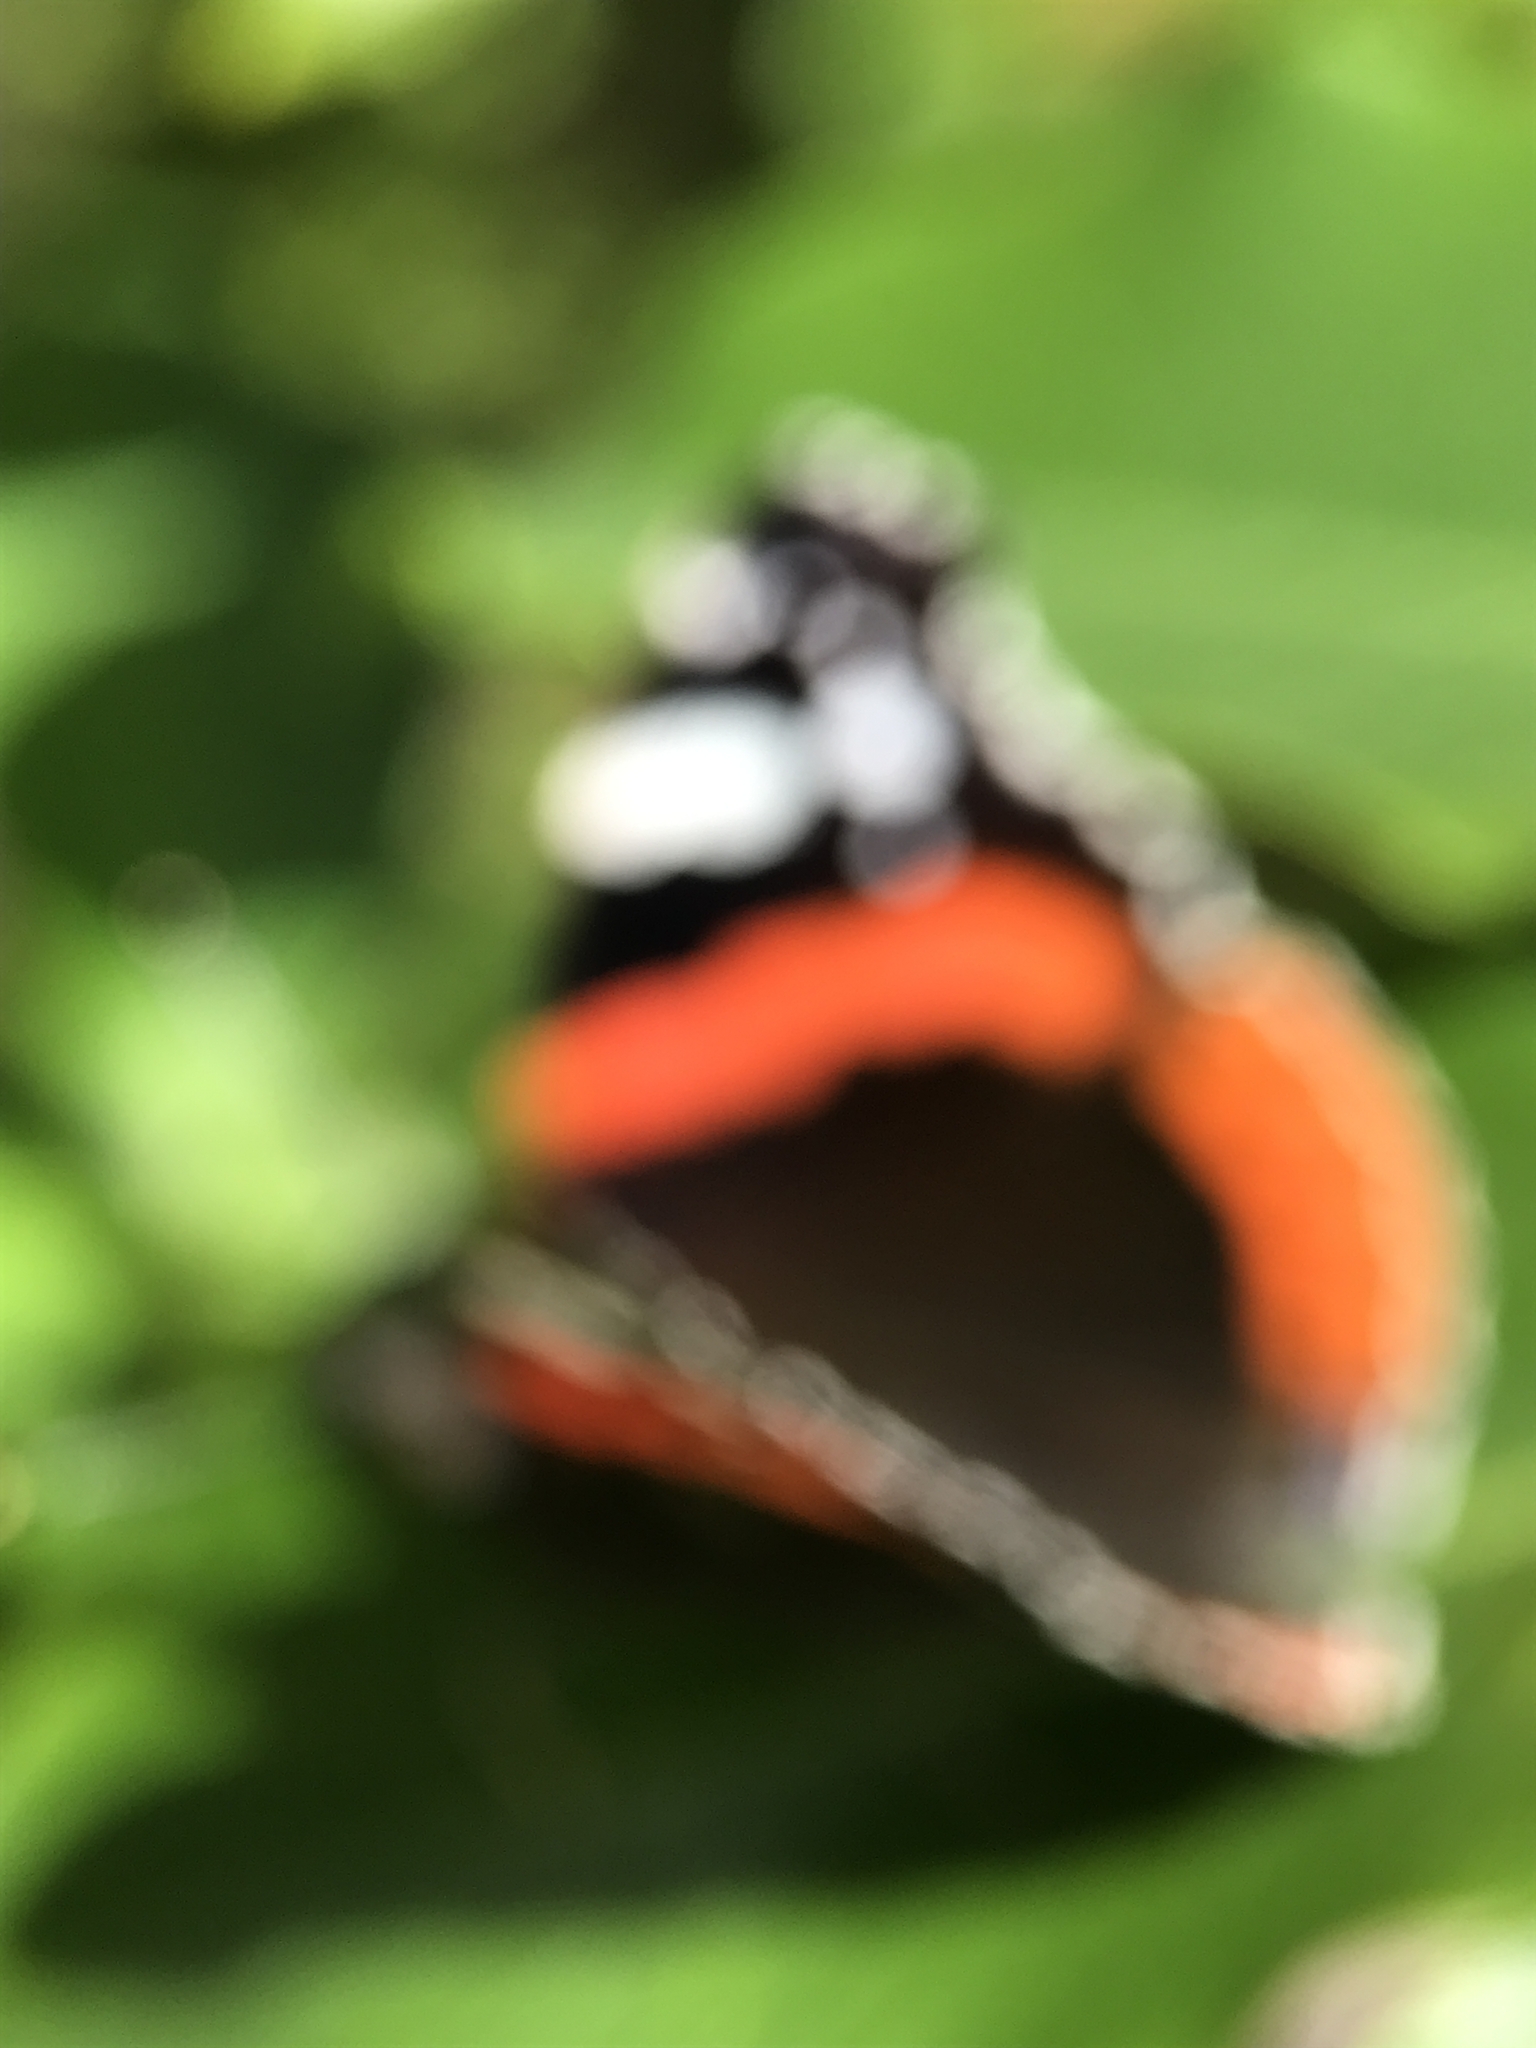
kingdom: Animalia
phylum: Arthropoda
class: Insecta
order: Lepidoptera
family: Nymphalidae
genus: Vanessa
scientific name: Vanessa atalanta
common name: Red admiral
